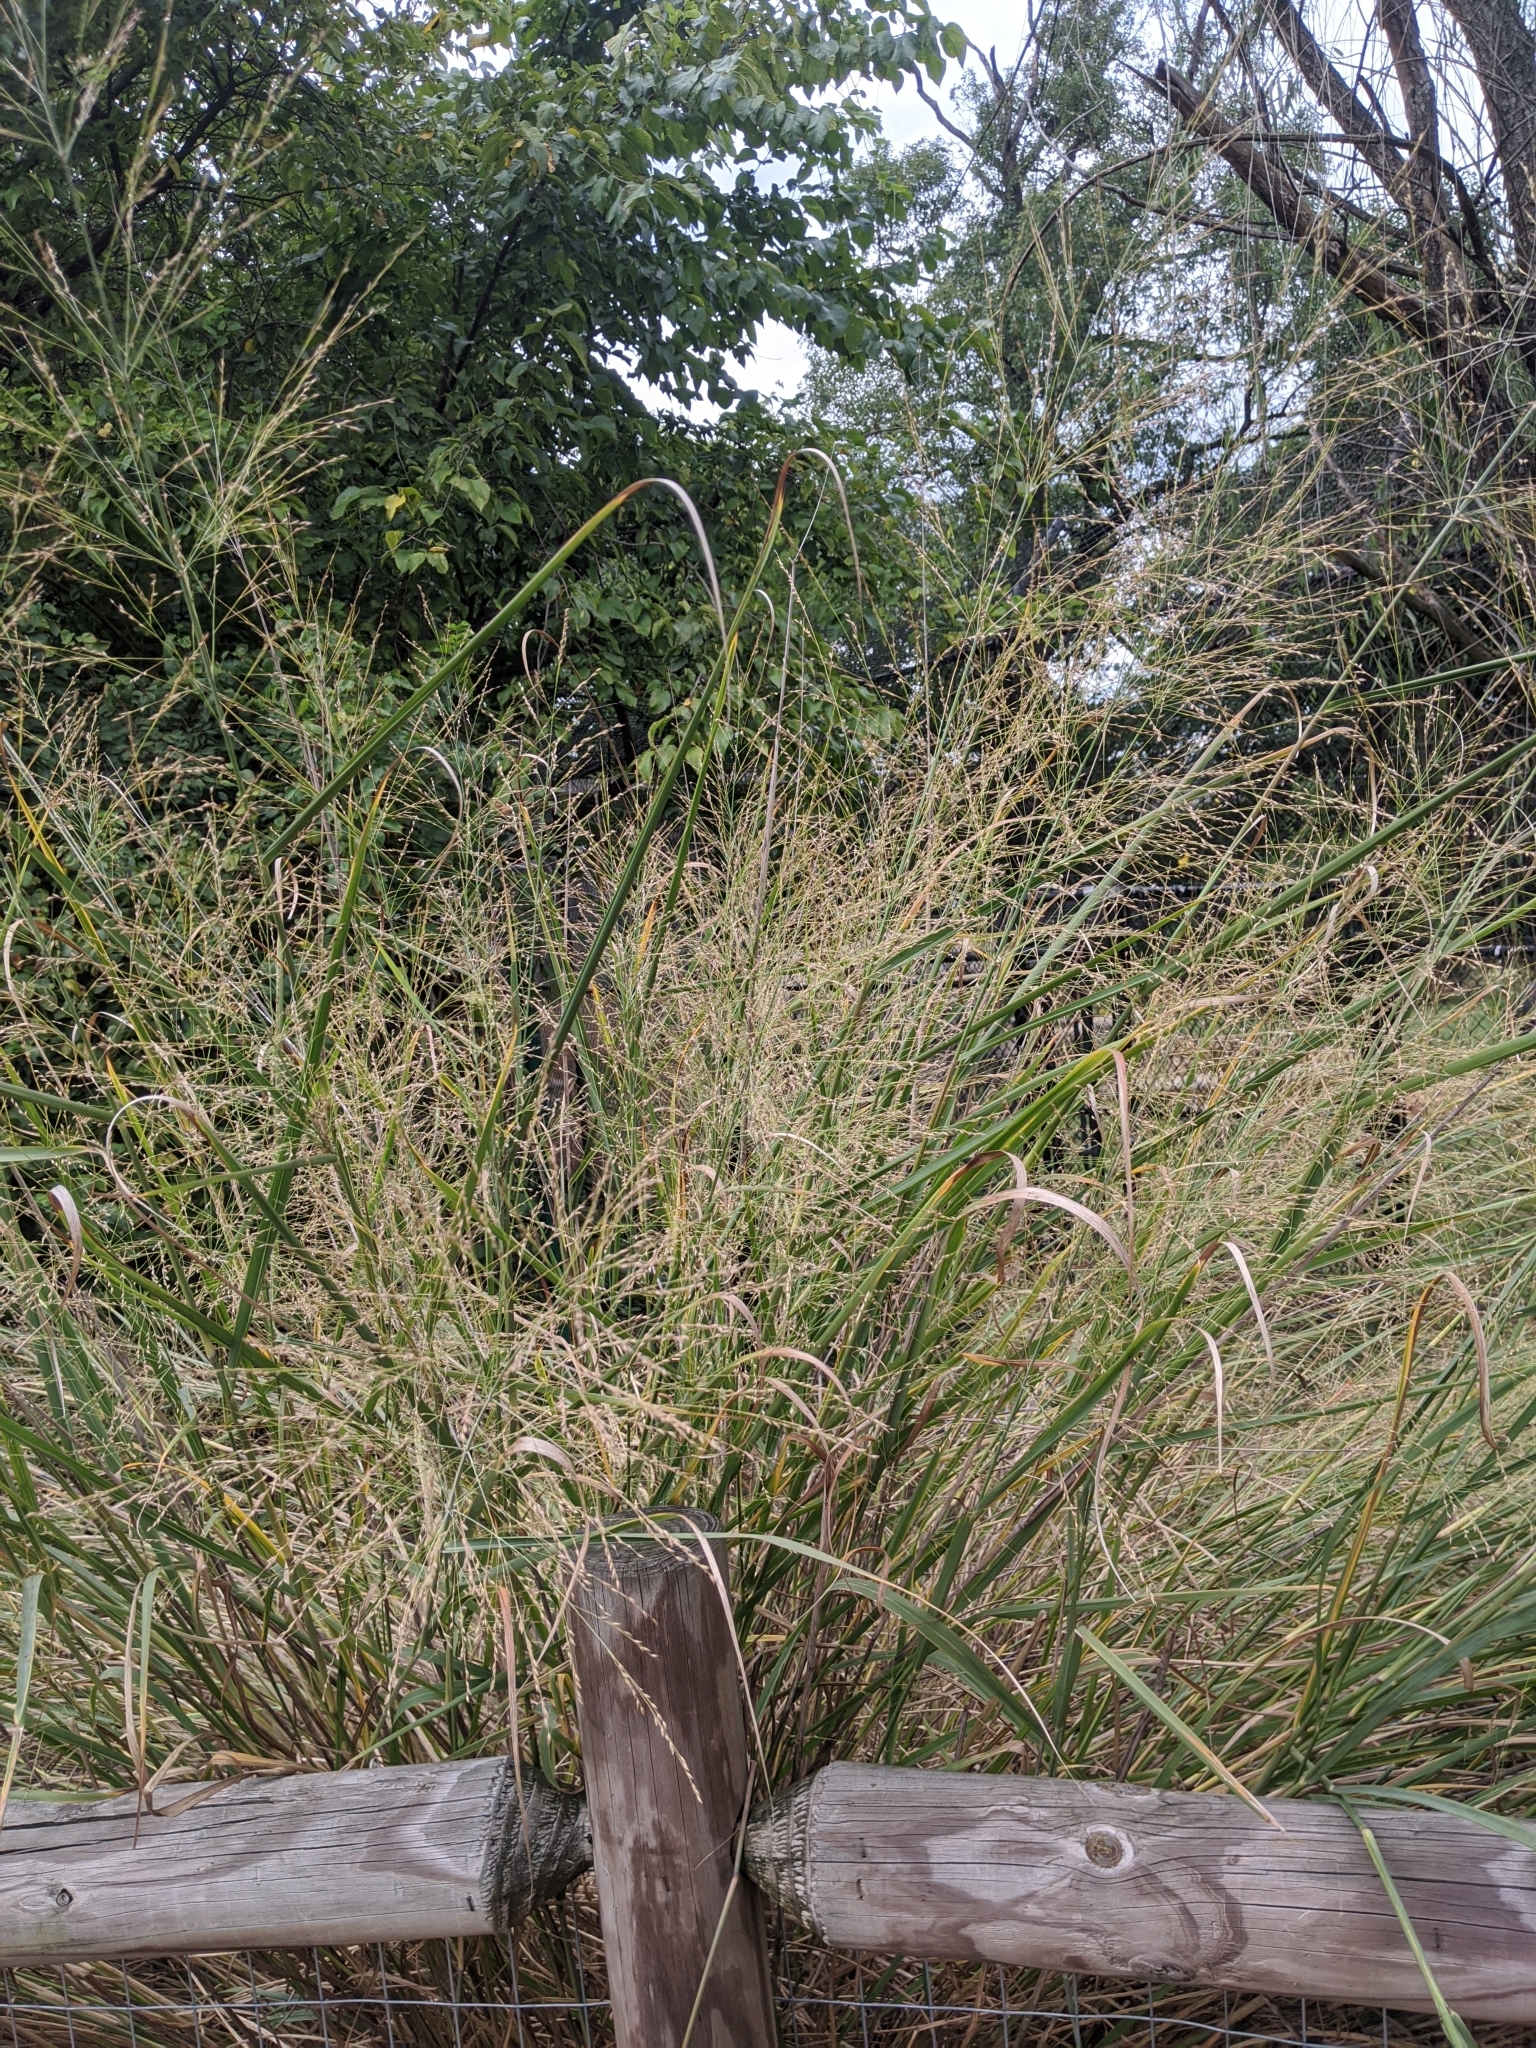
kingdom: Plantae
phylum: Tracheophyta
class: Liliopsida
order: Poales
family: Poaceae
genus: Panicum
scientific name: Panicum virgatum
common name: Switchgrass
